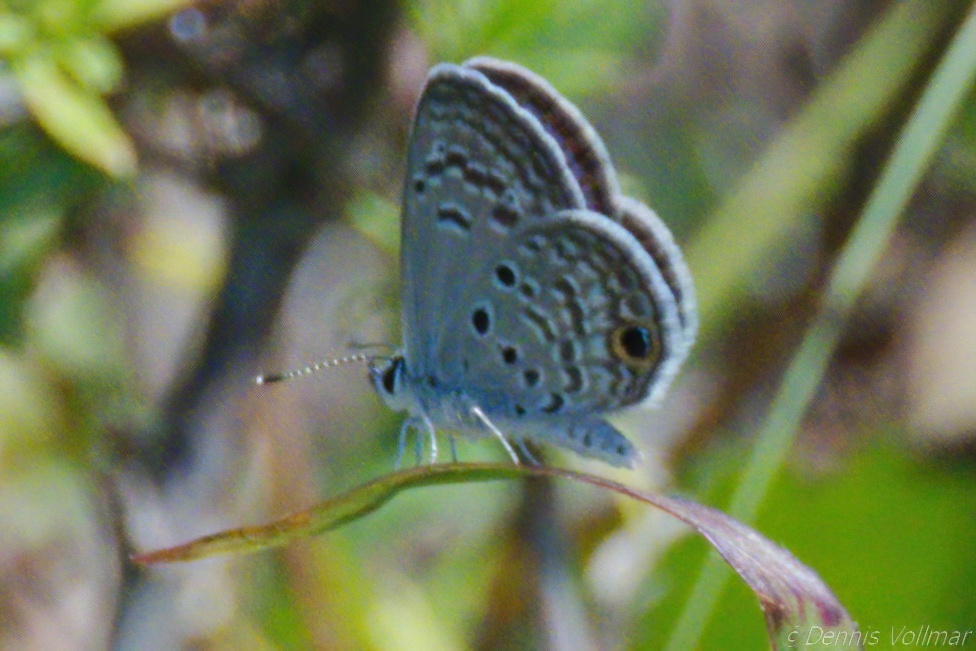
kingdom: Animalia
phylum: Arthropoda
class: Insecta
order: Lepidoptera
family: Lycaenidae
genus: Hemiargus
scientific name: Hemiargus ceraunus
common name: Ceraunus blue
